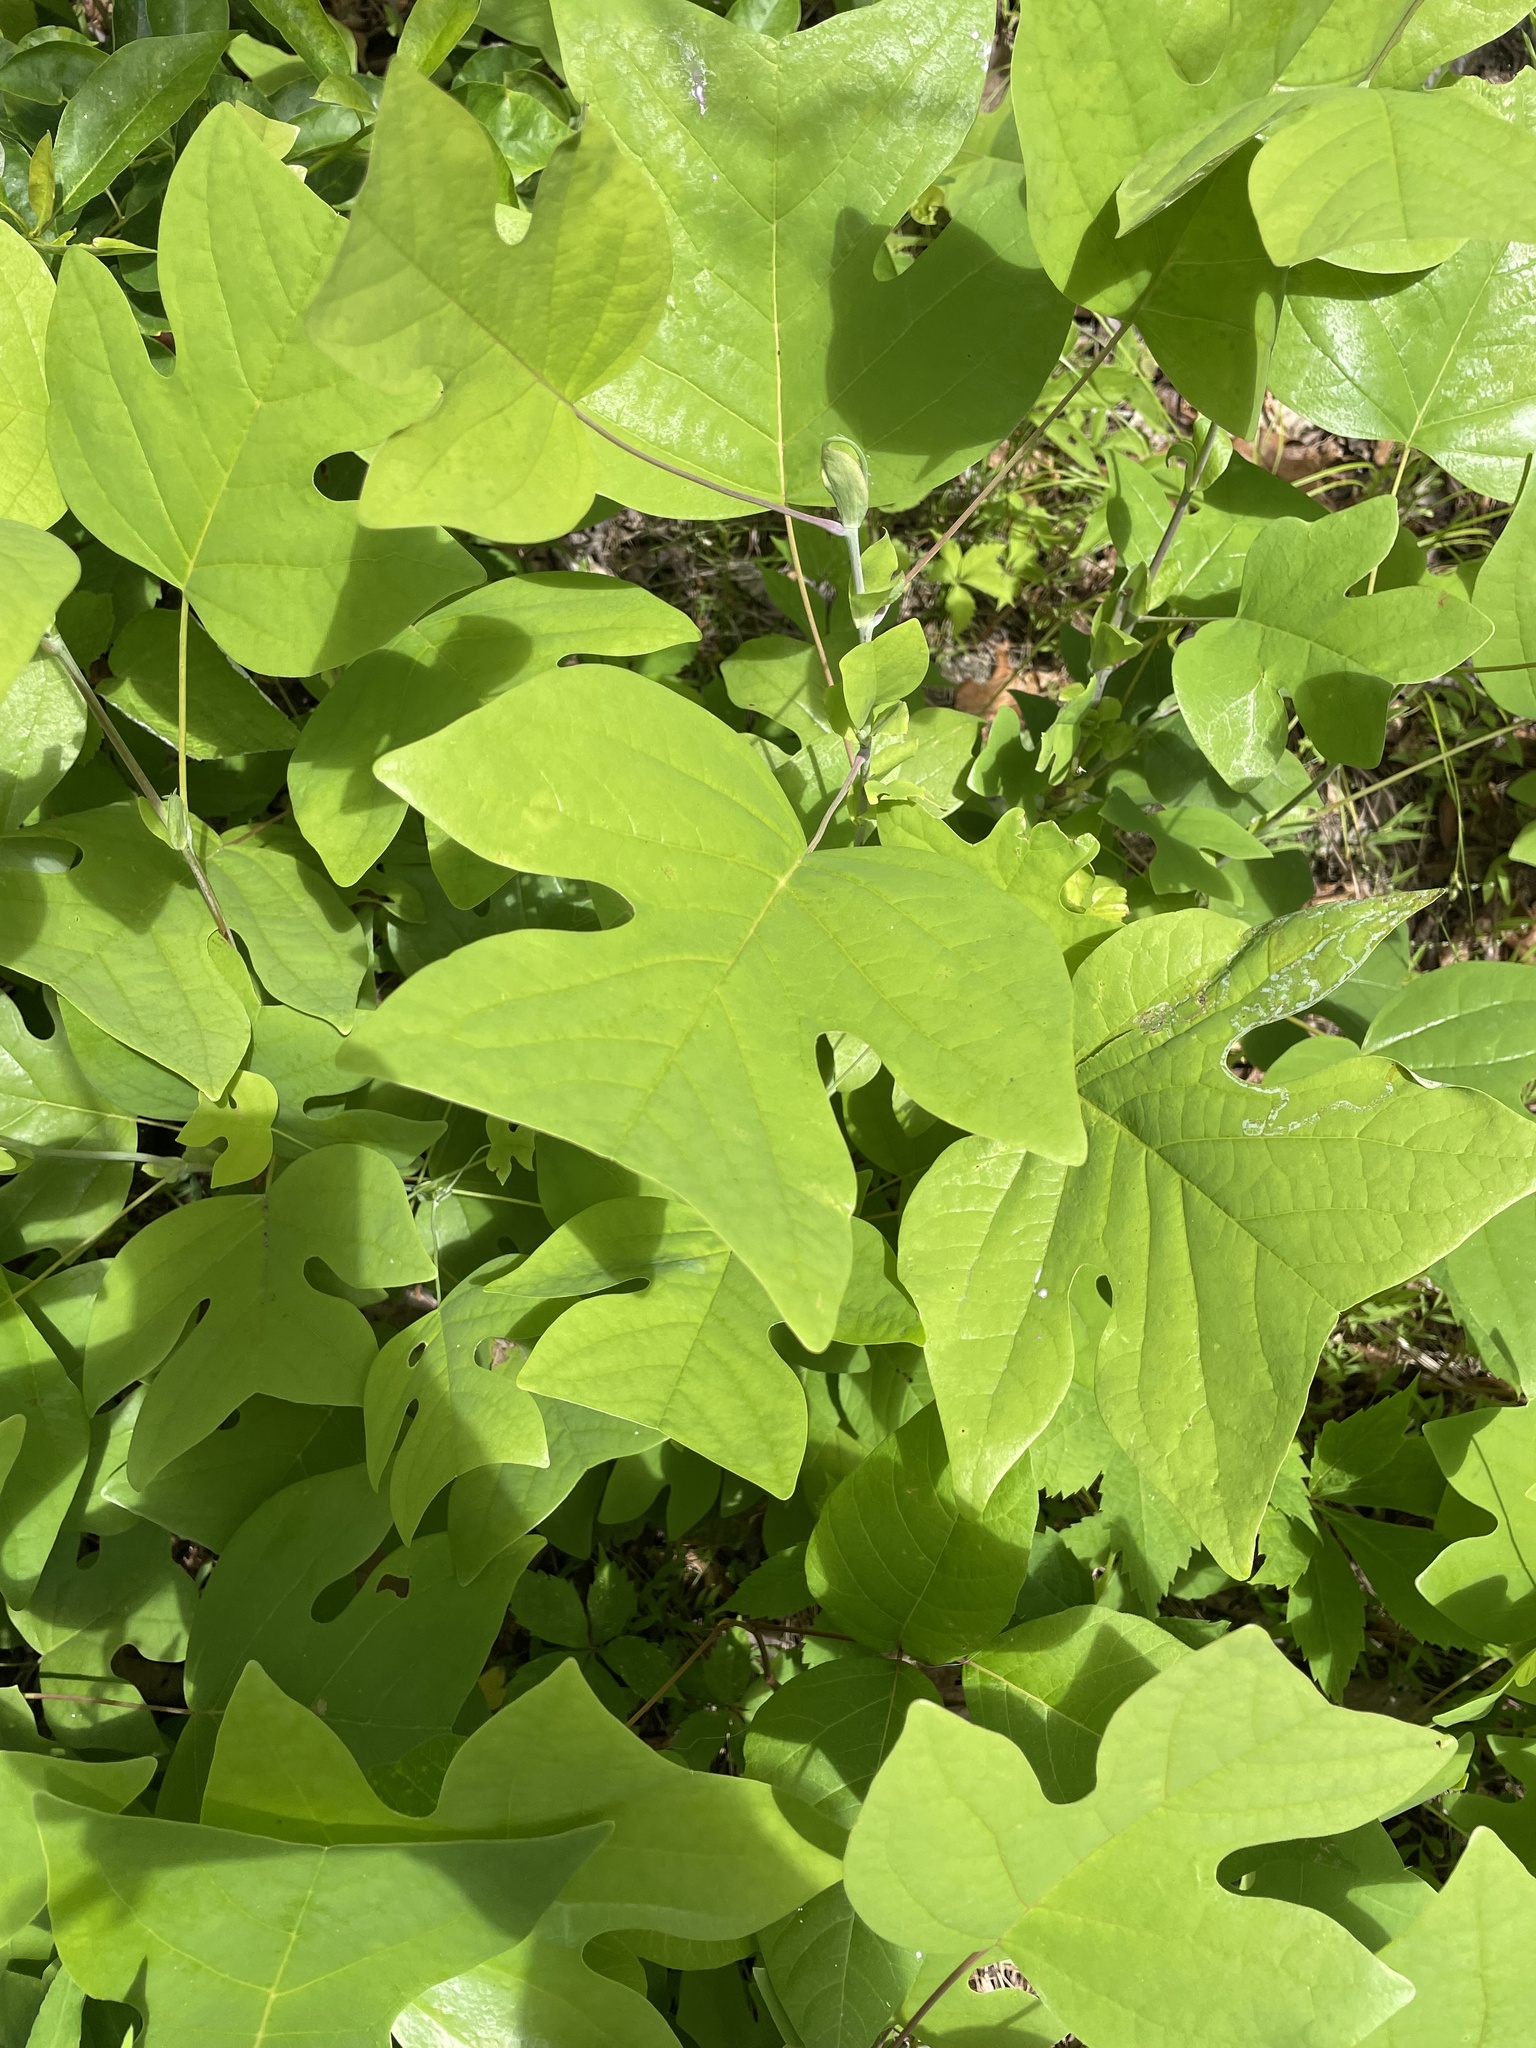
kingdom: Plantae
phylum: Tracheophyta
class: Magnoliopsida
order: Magnoliales
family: Magnoliaceae
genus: Liriodendron
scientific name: Liriodendron tulipifera
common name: Tulip tree
